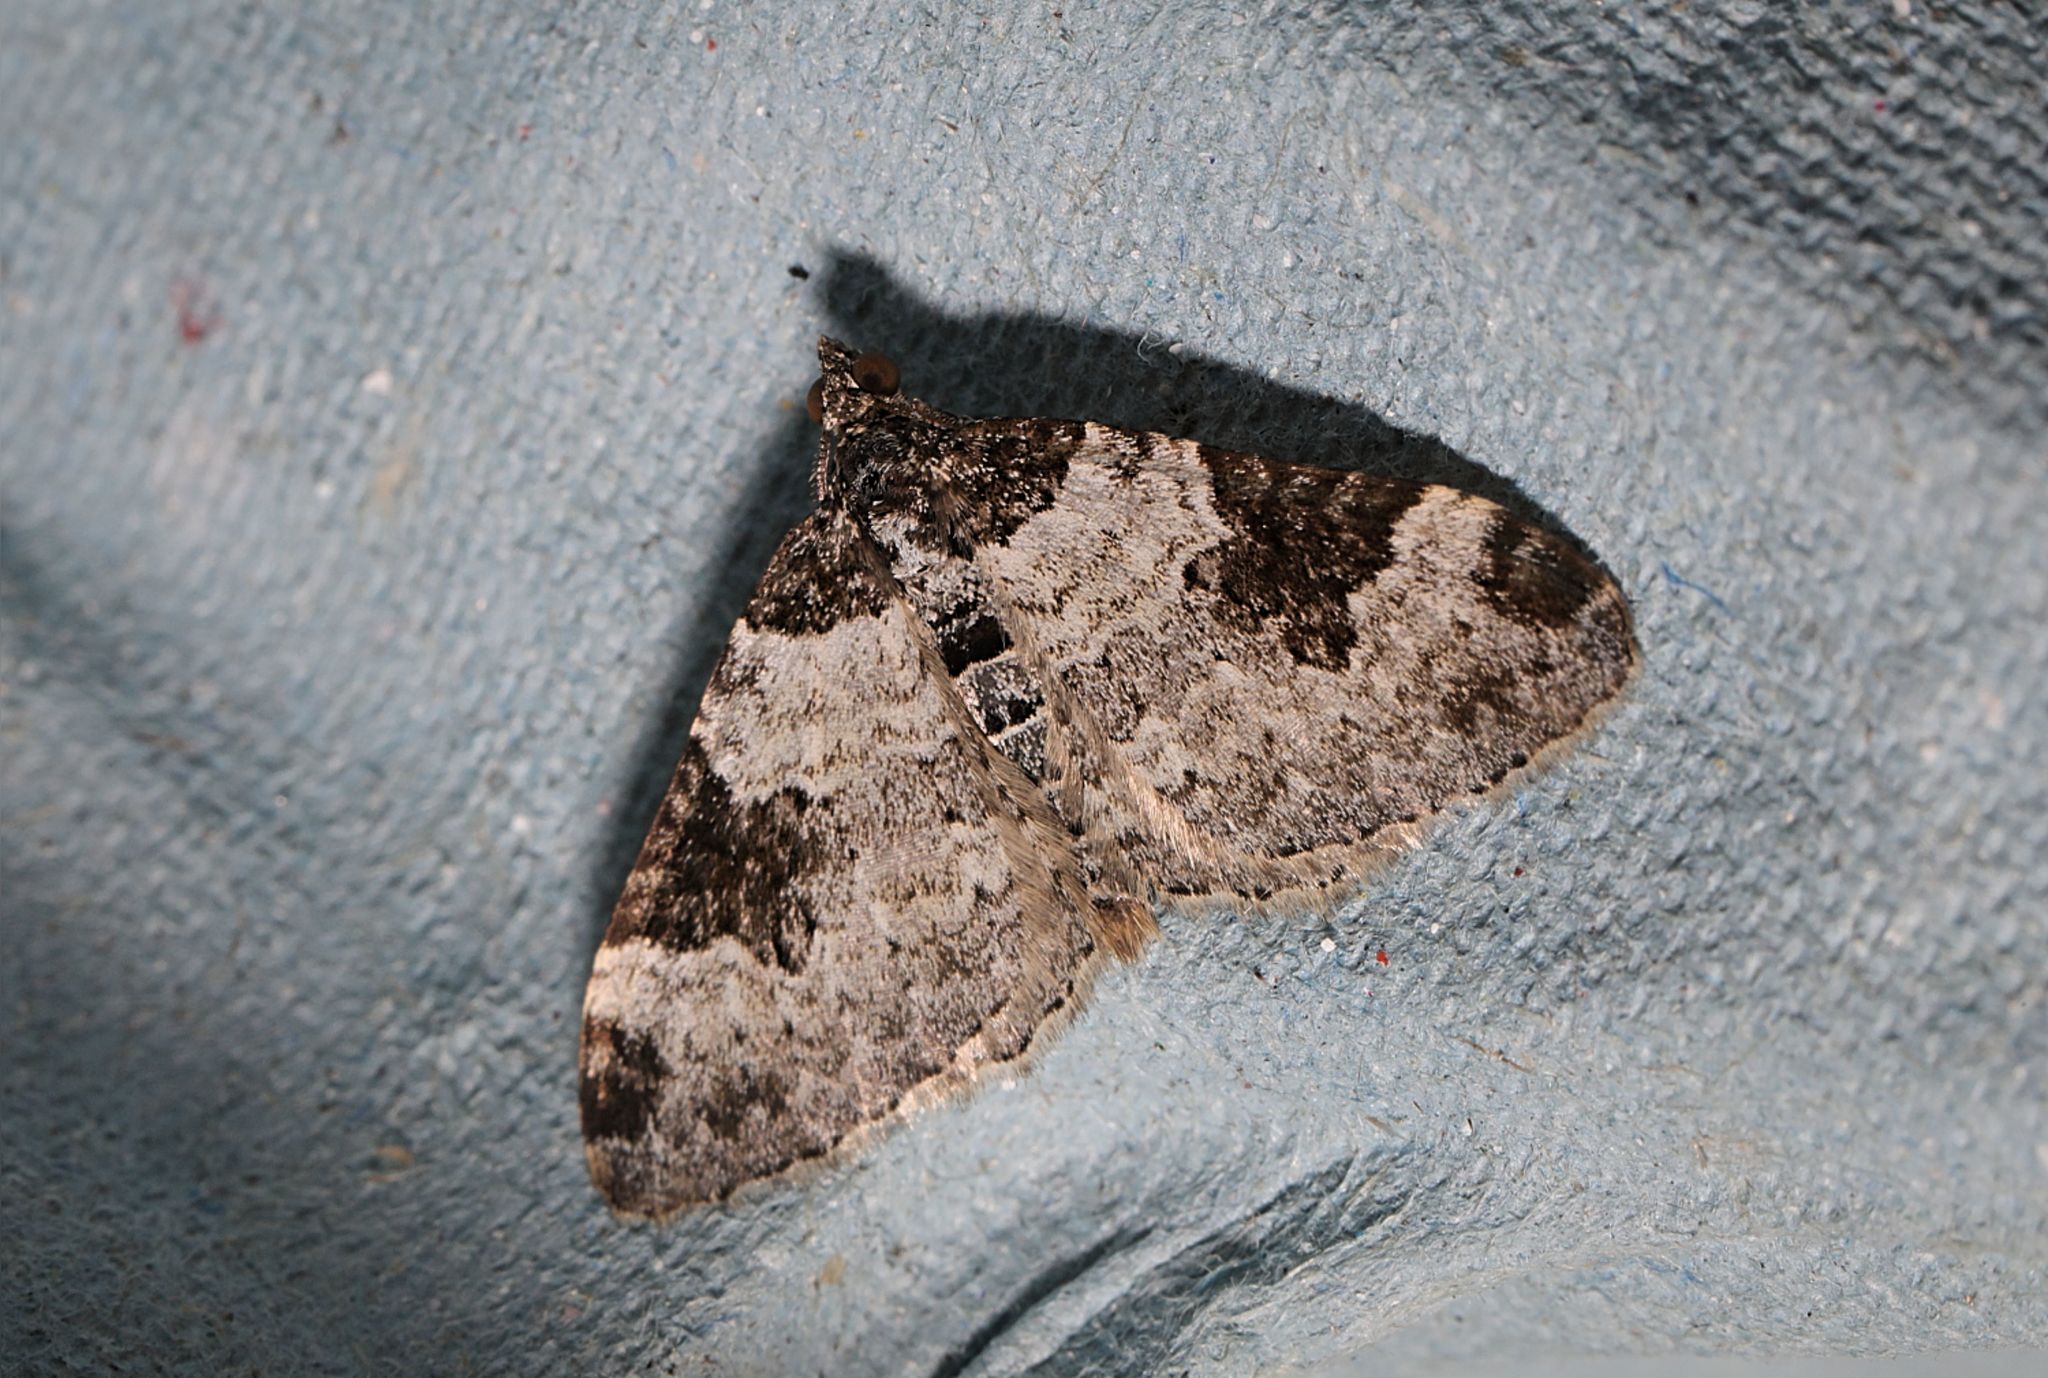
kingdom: Animalia
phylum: Arthropoda
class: Insecta
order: Lepidoptera
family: Geometridae
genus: Xanthorhoe
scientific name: Xanthorhoe fluctuata
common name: Garden carpet
